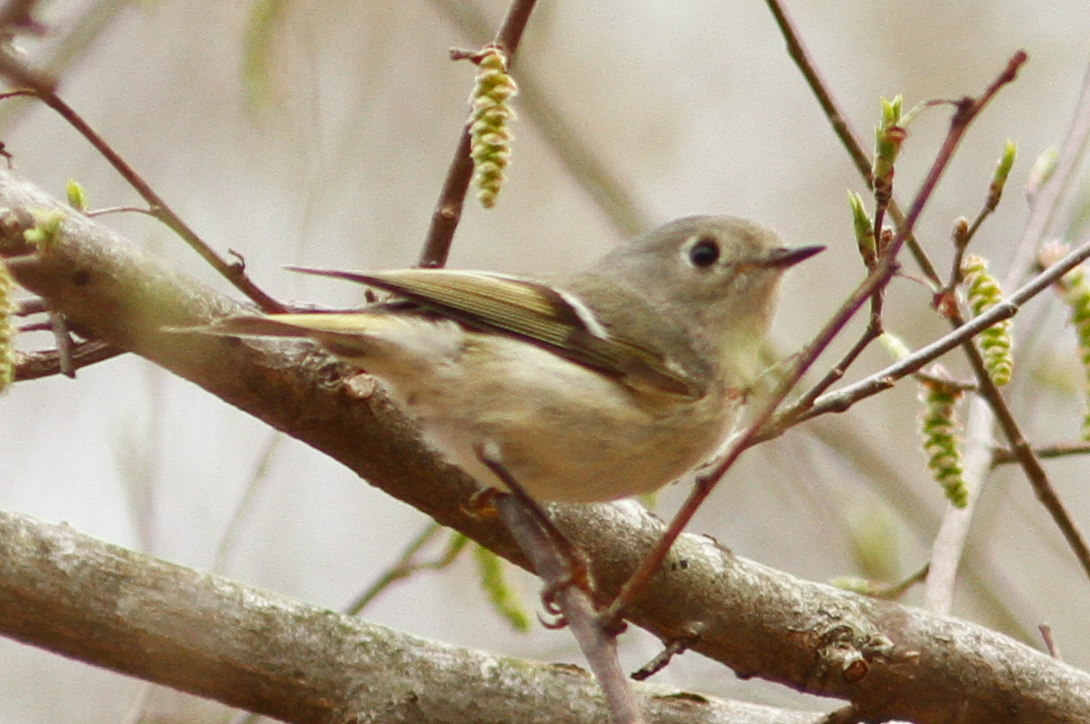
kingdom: Animalia
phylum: Chordata
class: Aves
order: Passeriformes
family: Regulidae
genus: Regulus
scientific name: Regulus calendula
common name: Ruby-crowned kinglet
